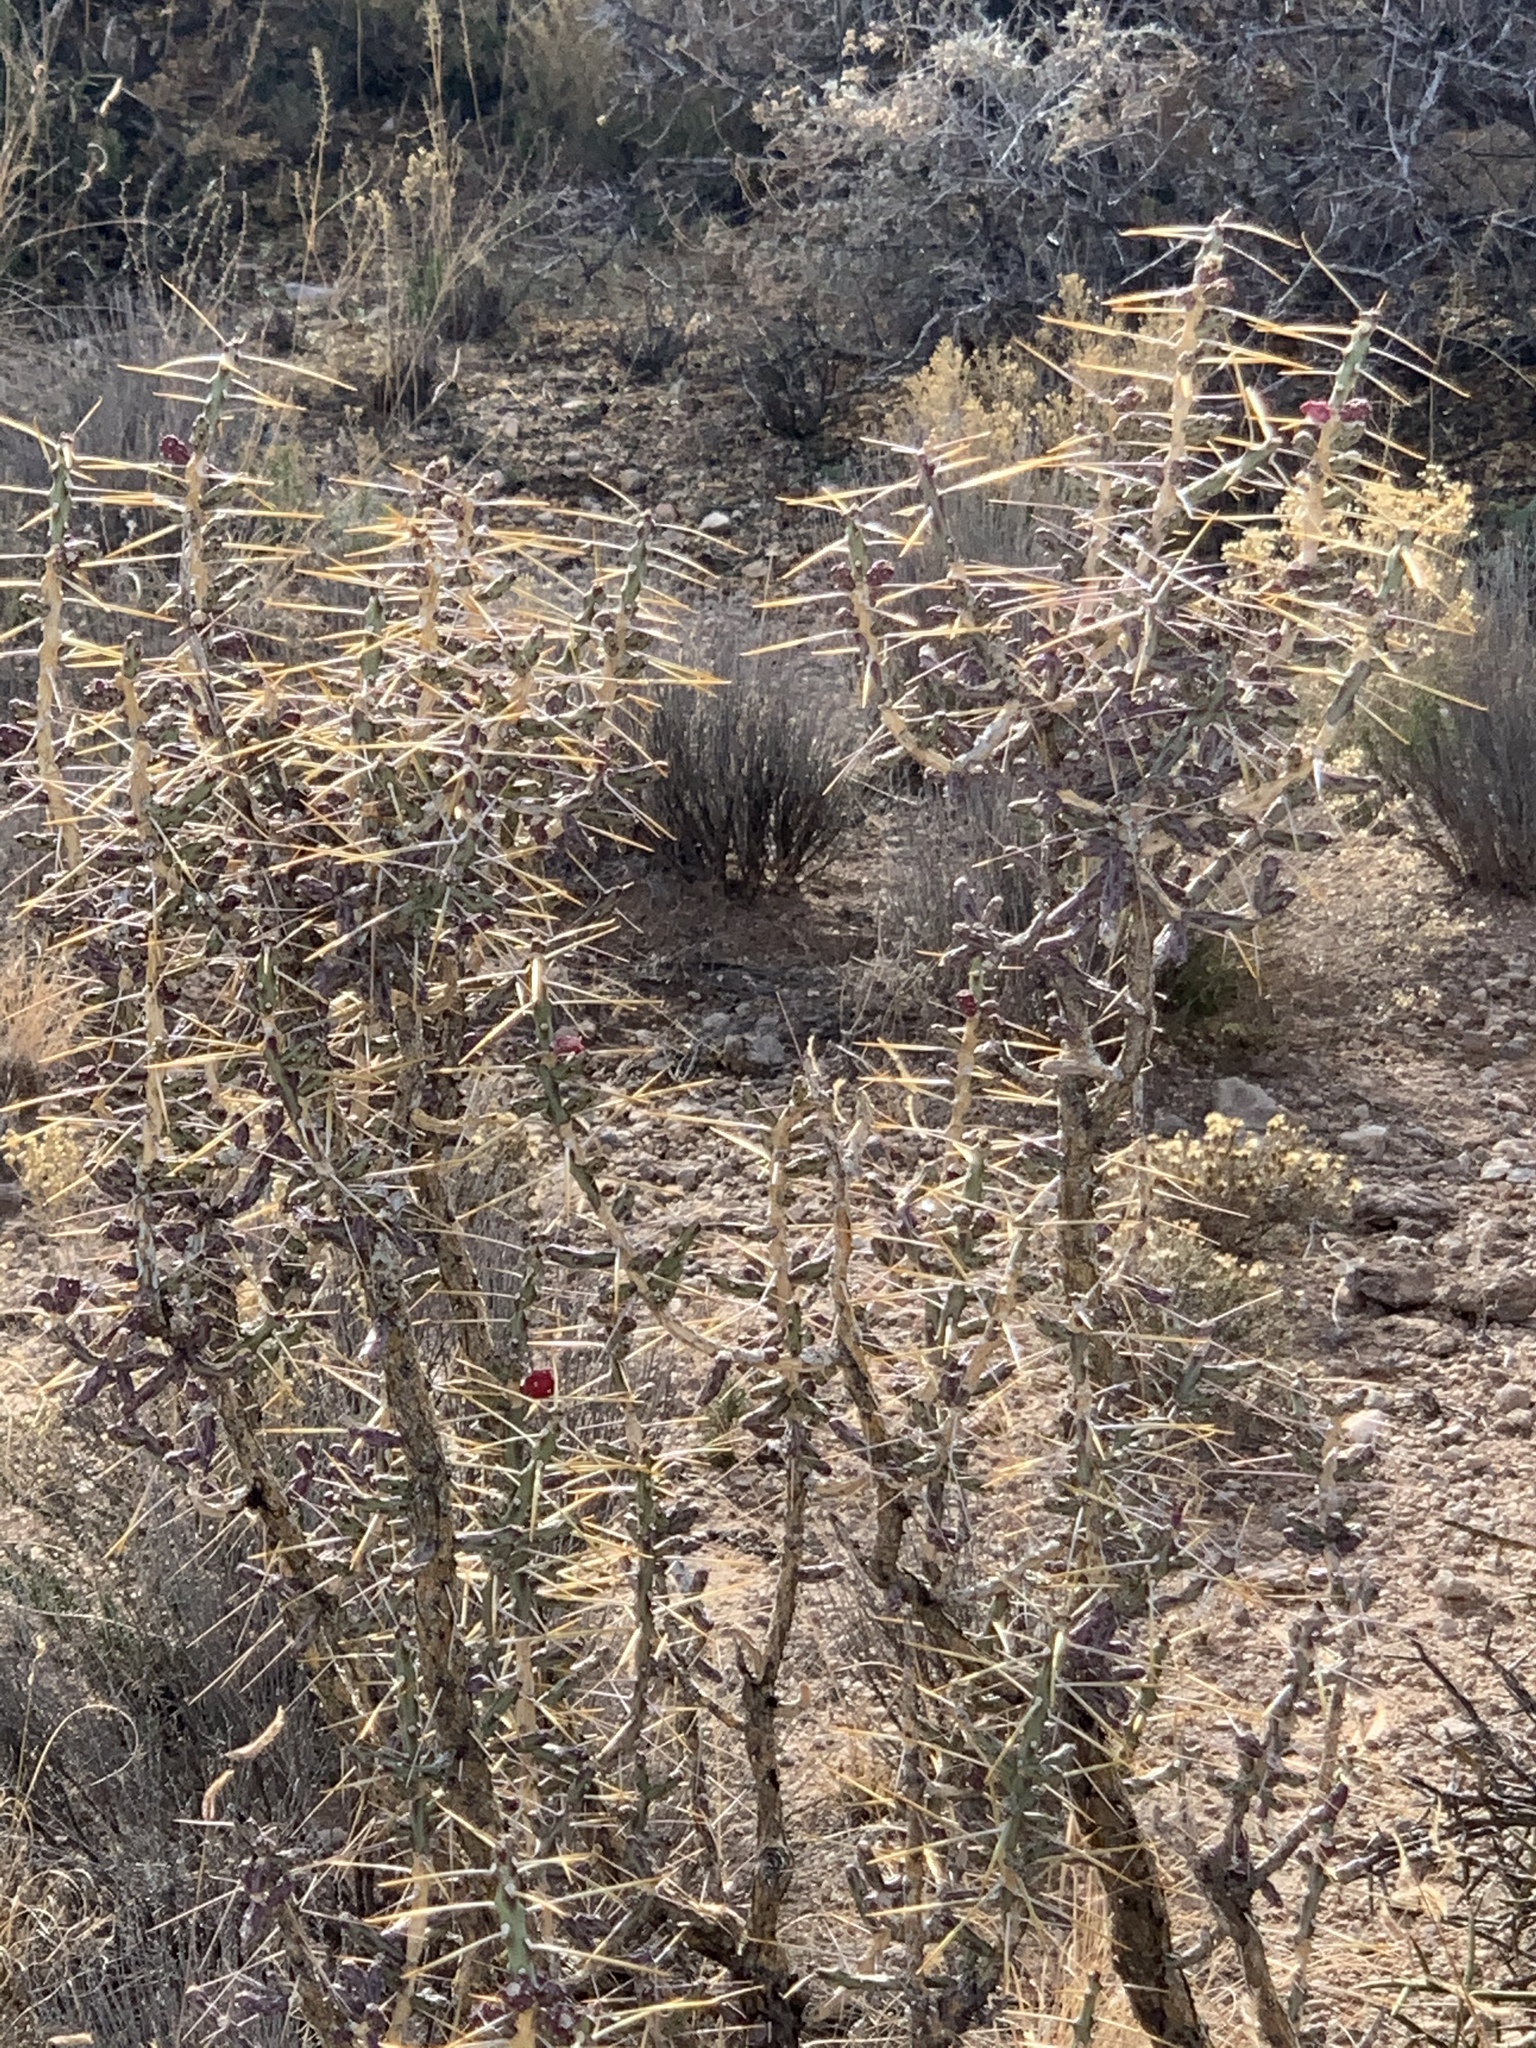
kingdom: Plantae
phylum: Tracheophyta
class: Magnoliopsida
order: Caryophyllales
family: Cactaceae
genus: Cylindropuntia
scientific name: Cylindropuntia leptocaulis
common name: Christmas cactus
